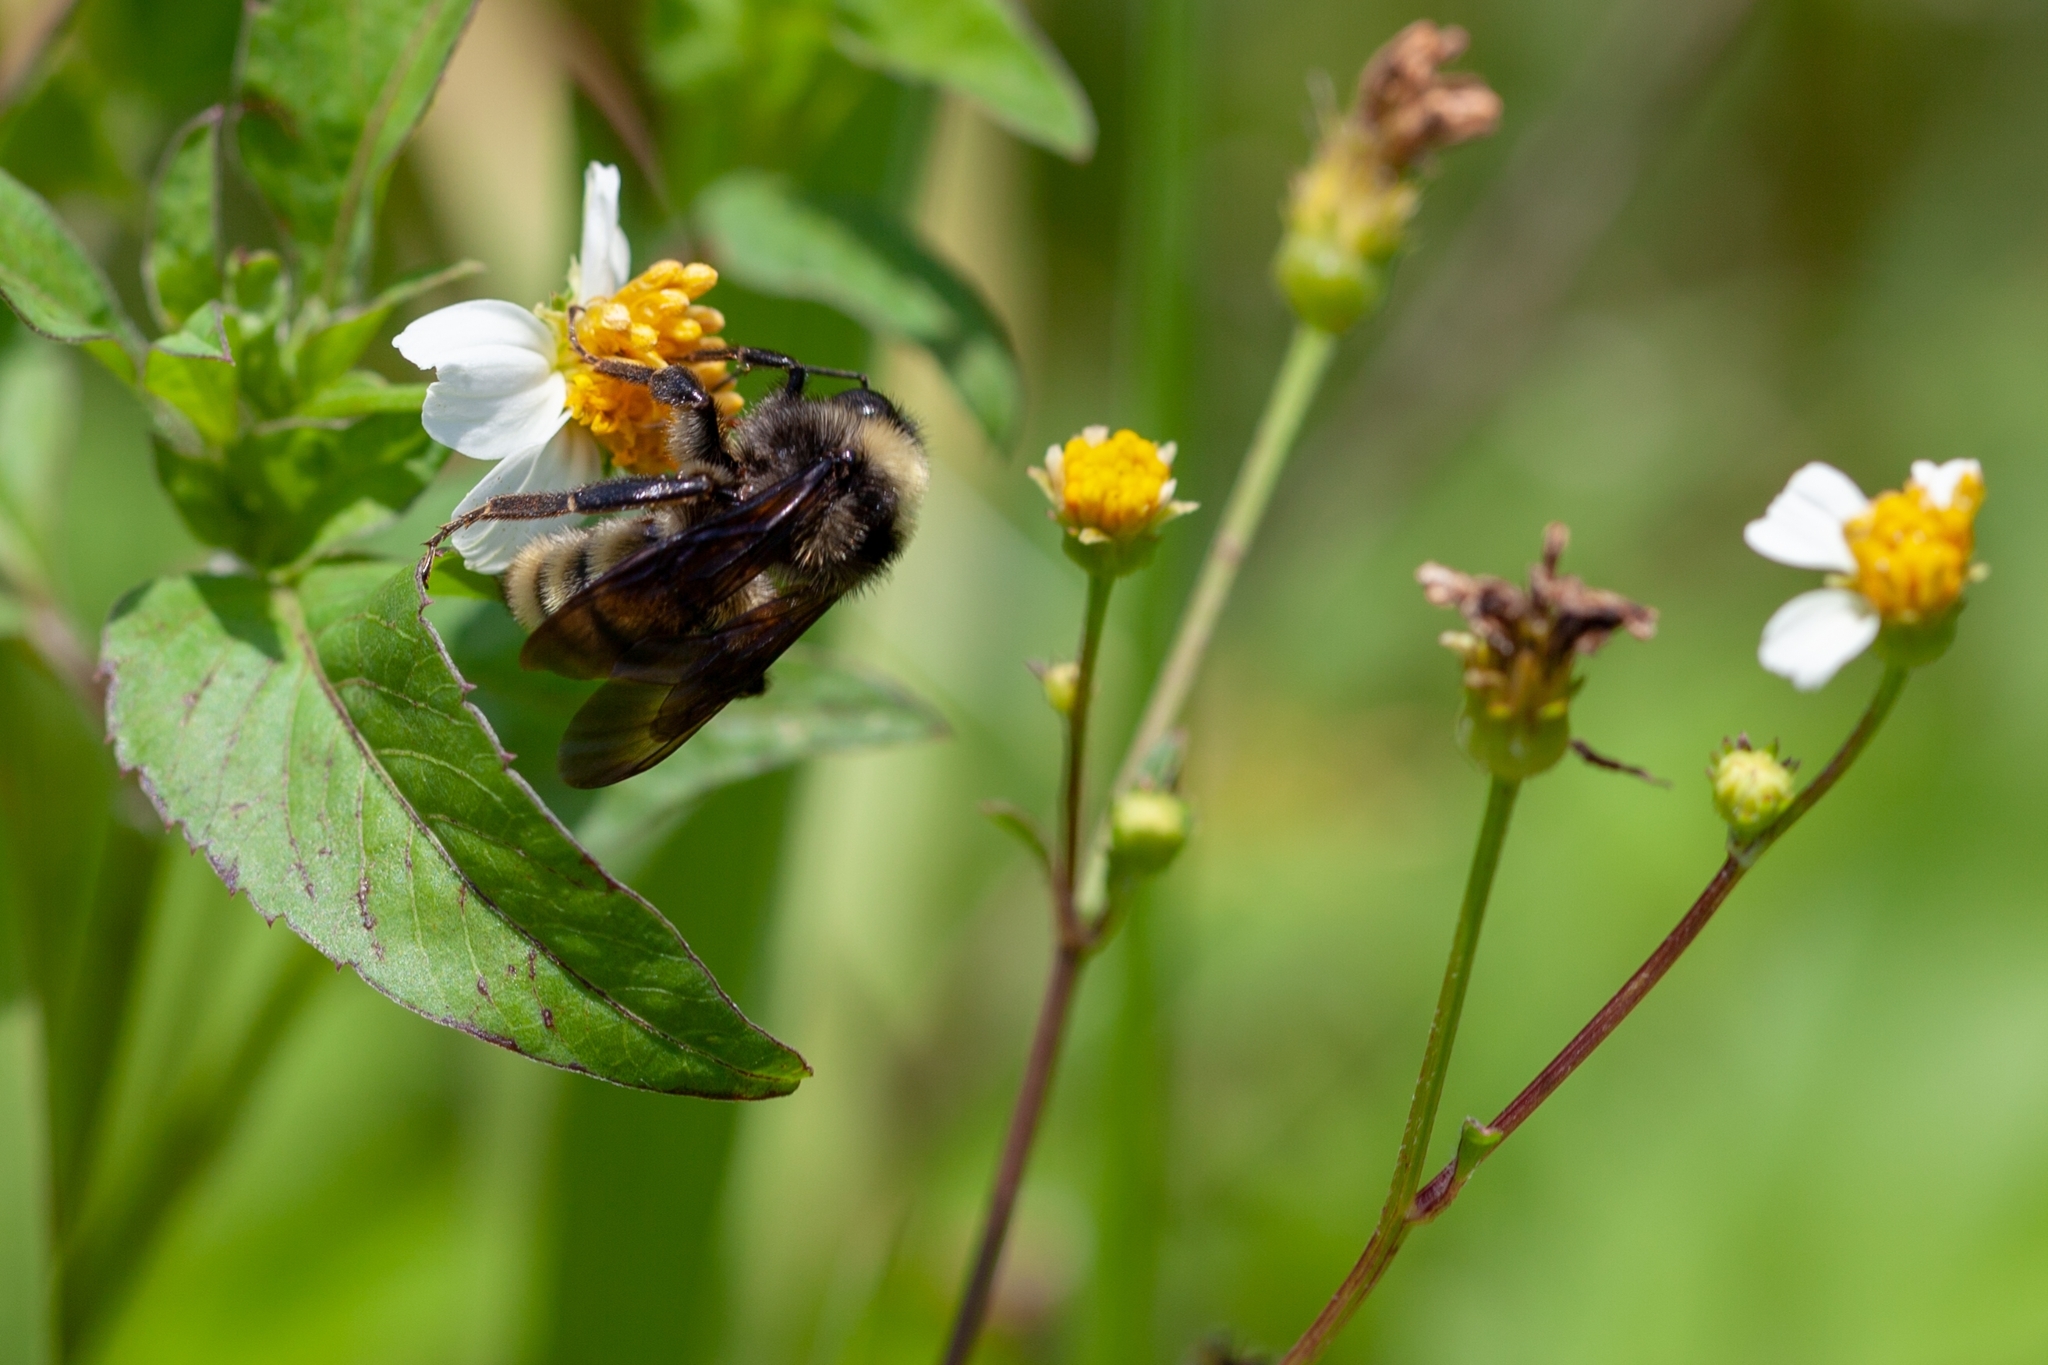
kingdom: Animalia
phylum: Arthropoda
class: Insecta
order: Hymenoptera
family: Apidae
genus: Bombus
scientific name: Bombus pensylvanicus
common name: Bumble bee
